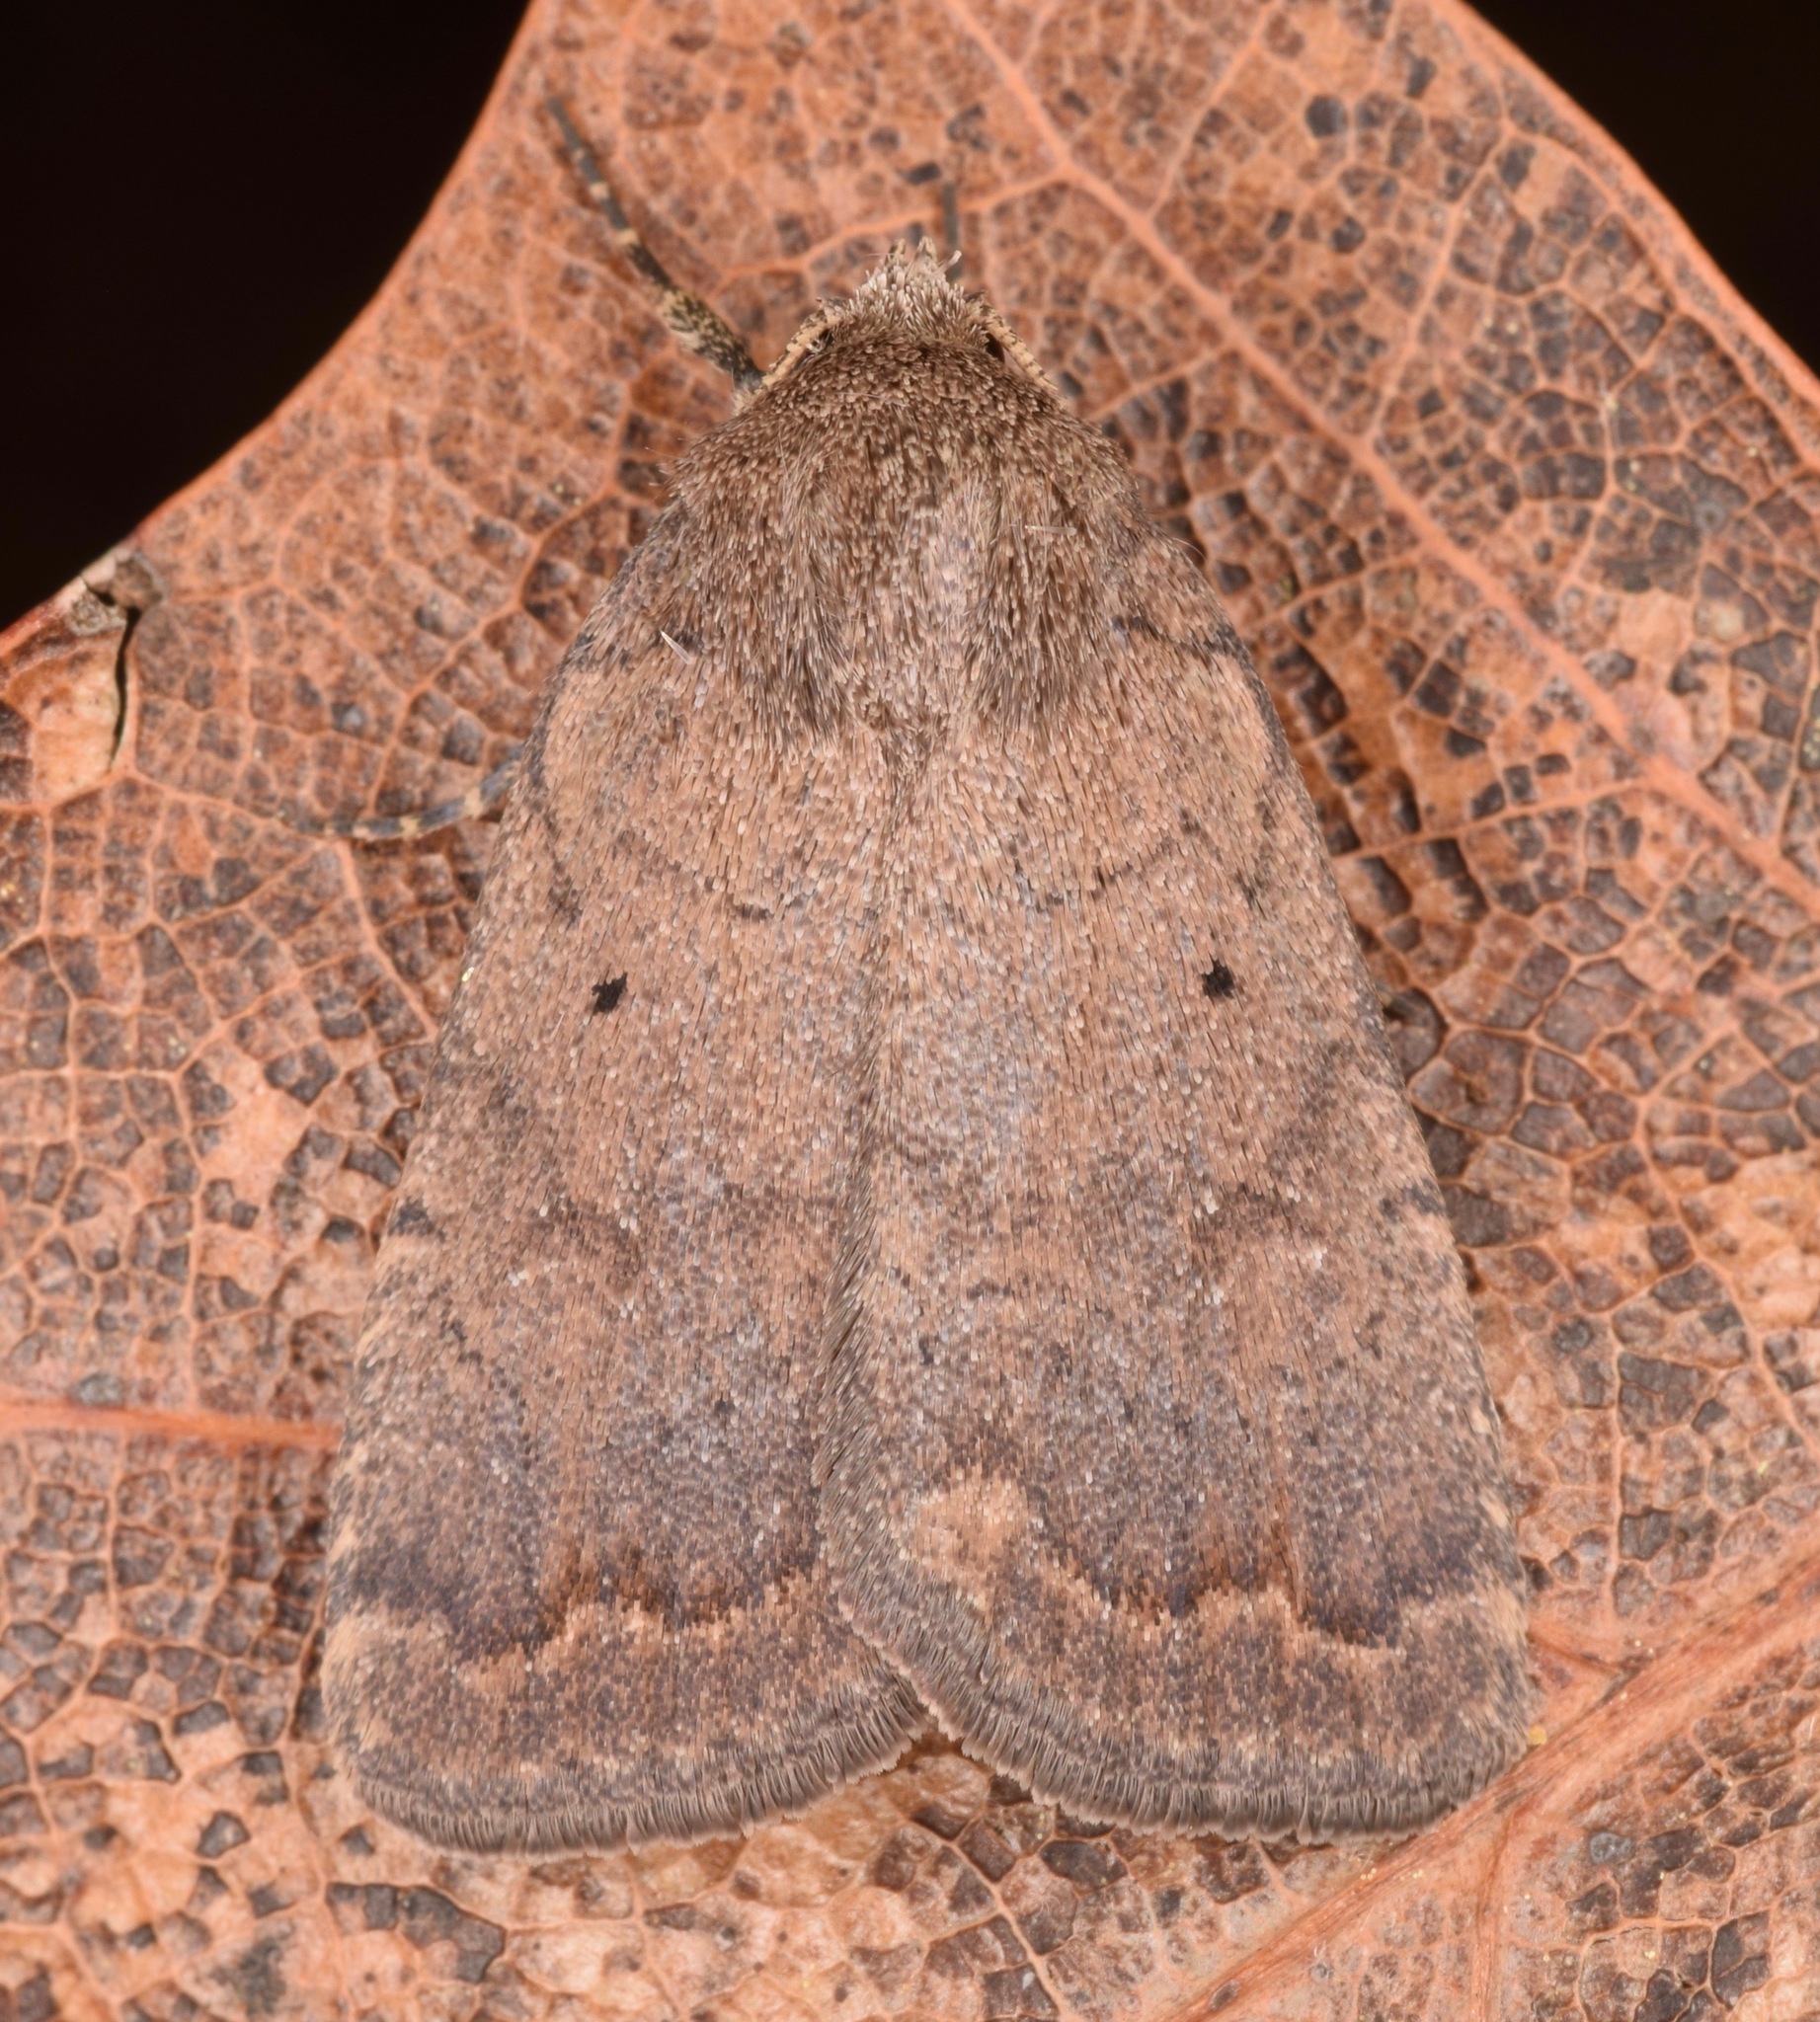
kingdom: Animalia
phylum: Arthropoda
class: Insecta
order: Lepidoptera
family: Noctuidae
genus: Athetis
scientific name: Athetis tarda
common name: Slowpoke moth
